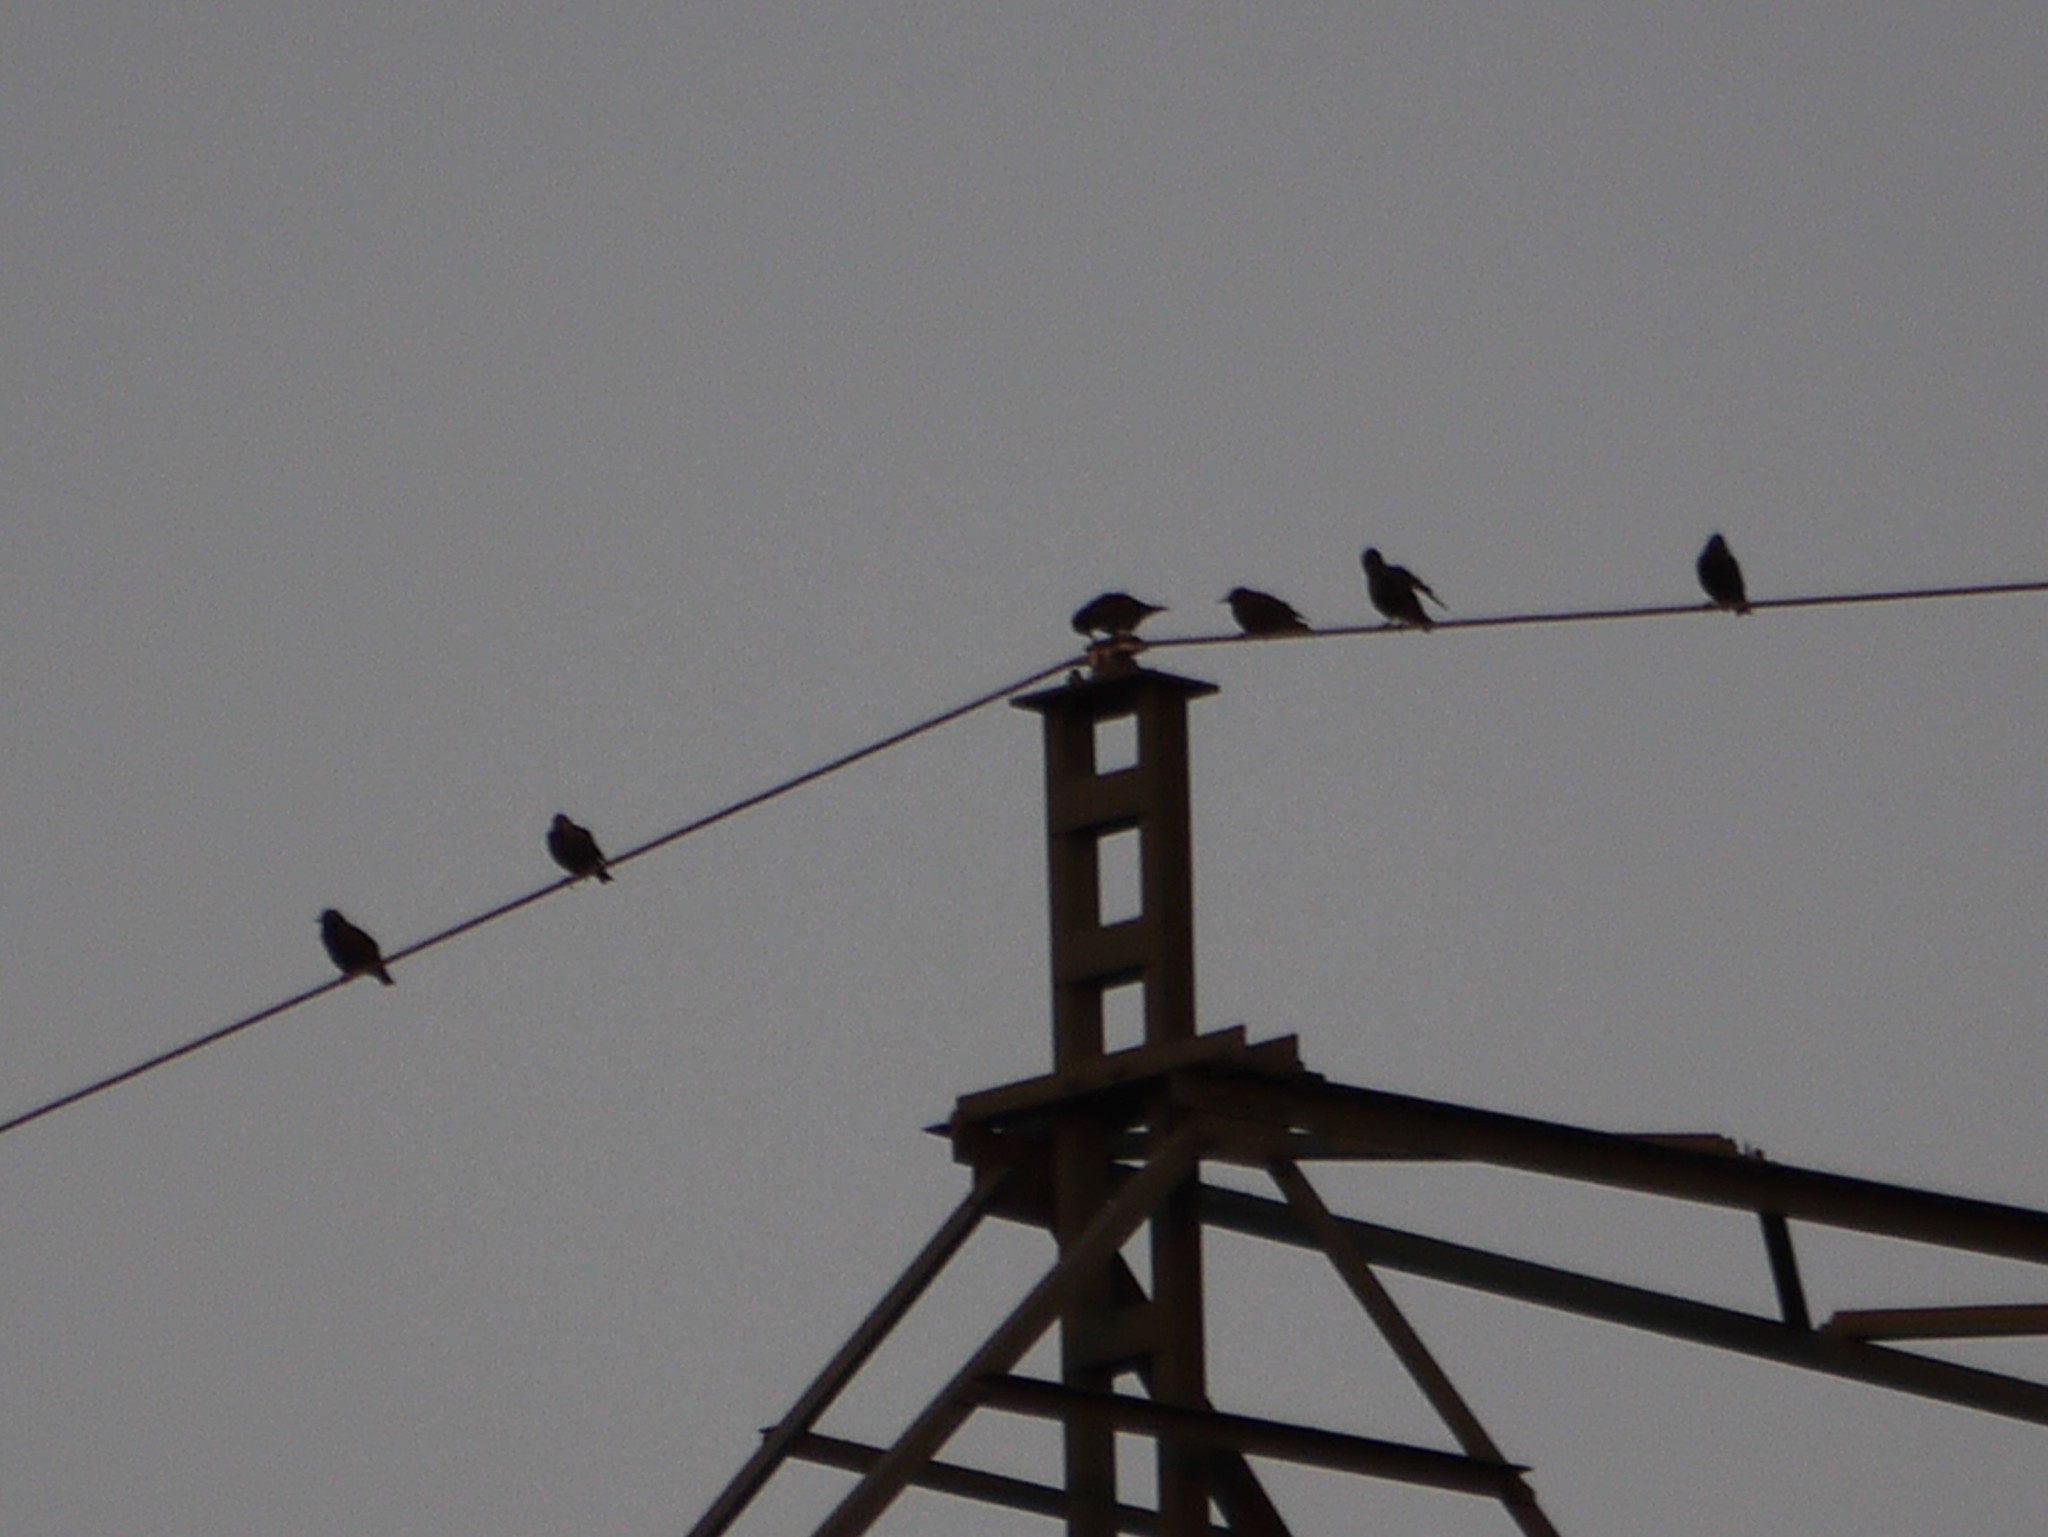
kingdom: Animalia
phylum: Chordata
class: Aves
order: Passeriformes
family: Sturnidae
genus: Sturnus
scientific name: Sturnus vulgaris
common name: Common starling
